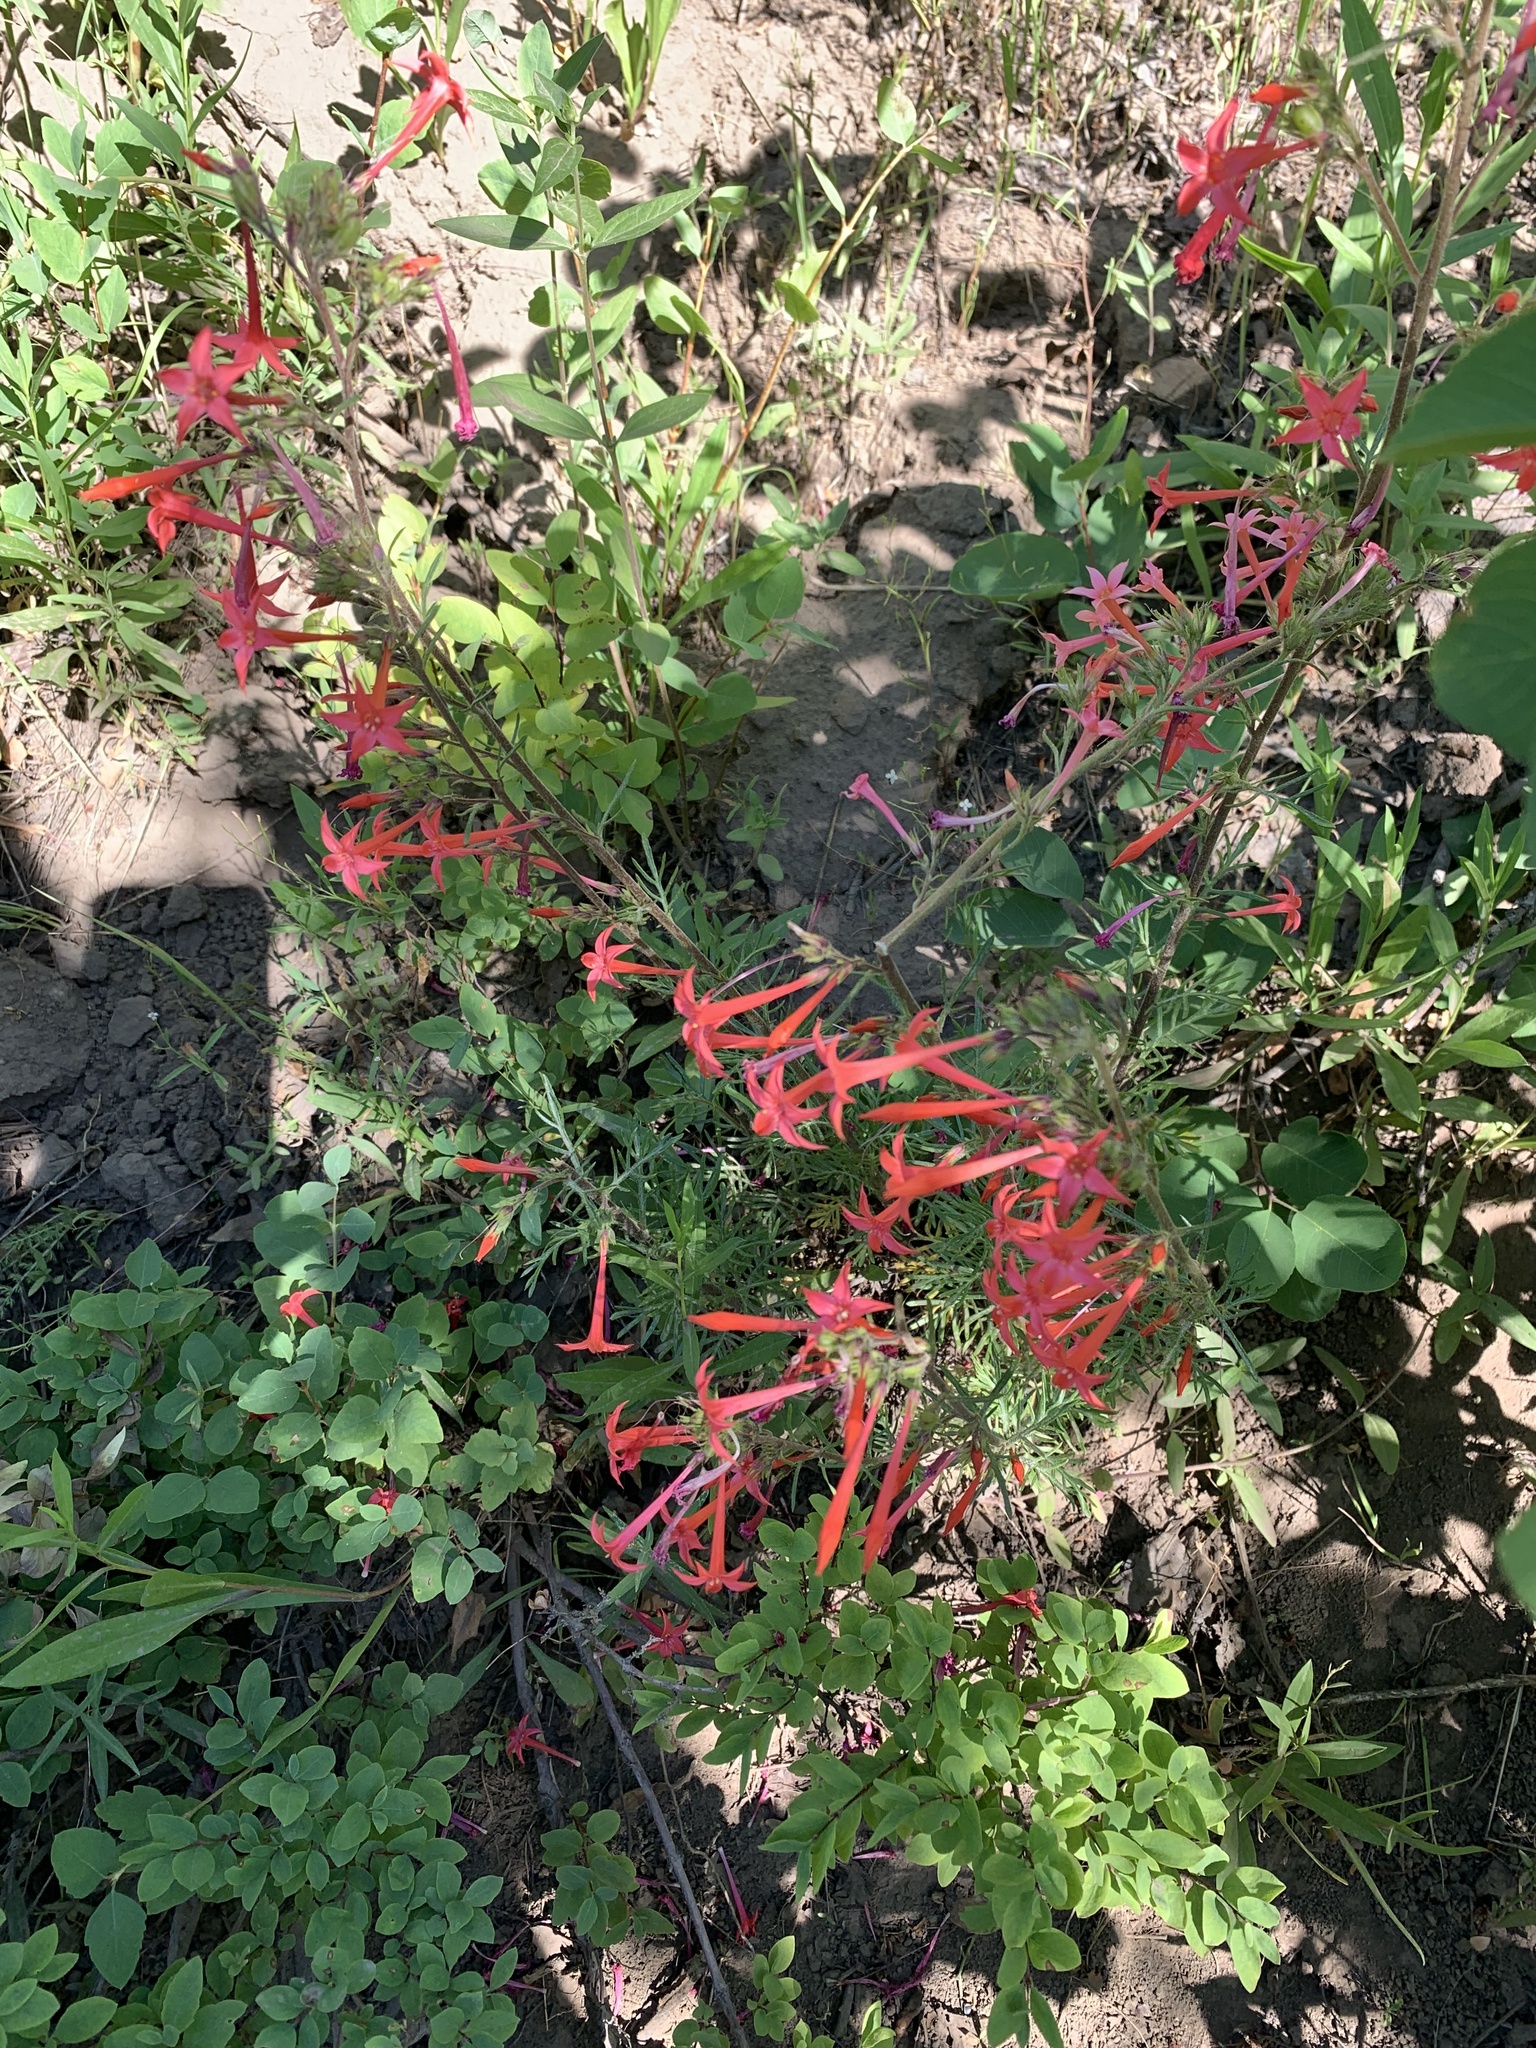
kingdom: Plantae
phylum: Tracheophyta
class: Magnoliopsida
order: Ericales
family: Polemoniaceae
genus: Ipomopsis
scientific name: Ipomopsis aggregata
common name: Scarlet gilia
